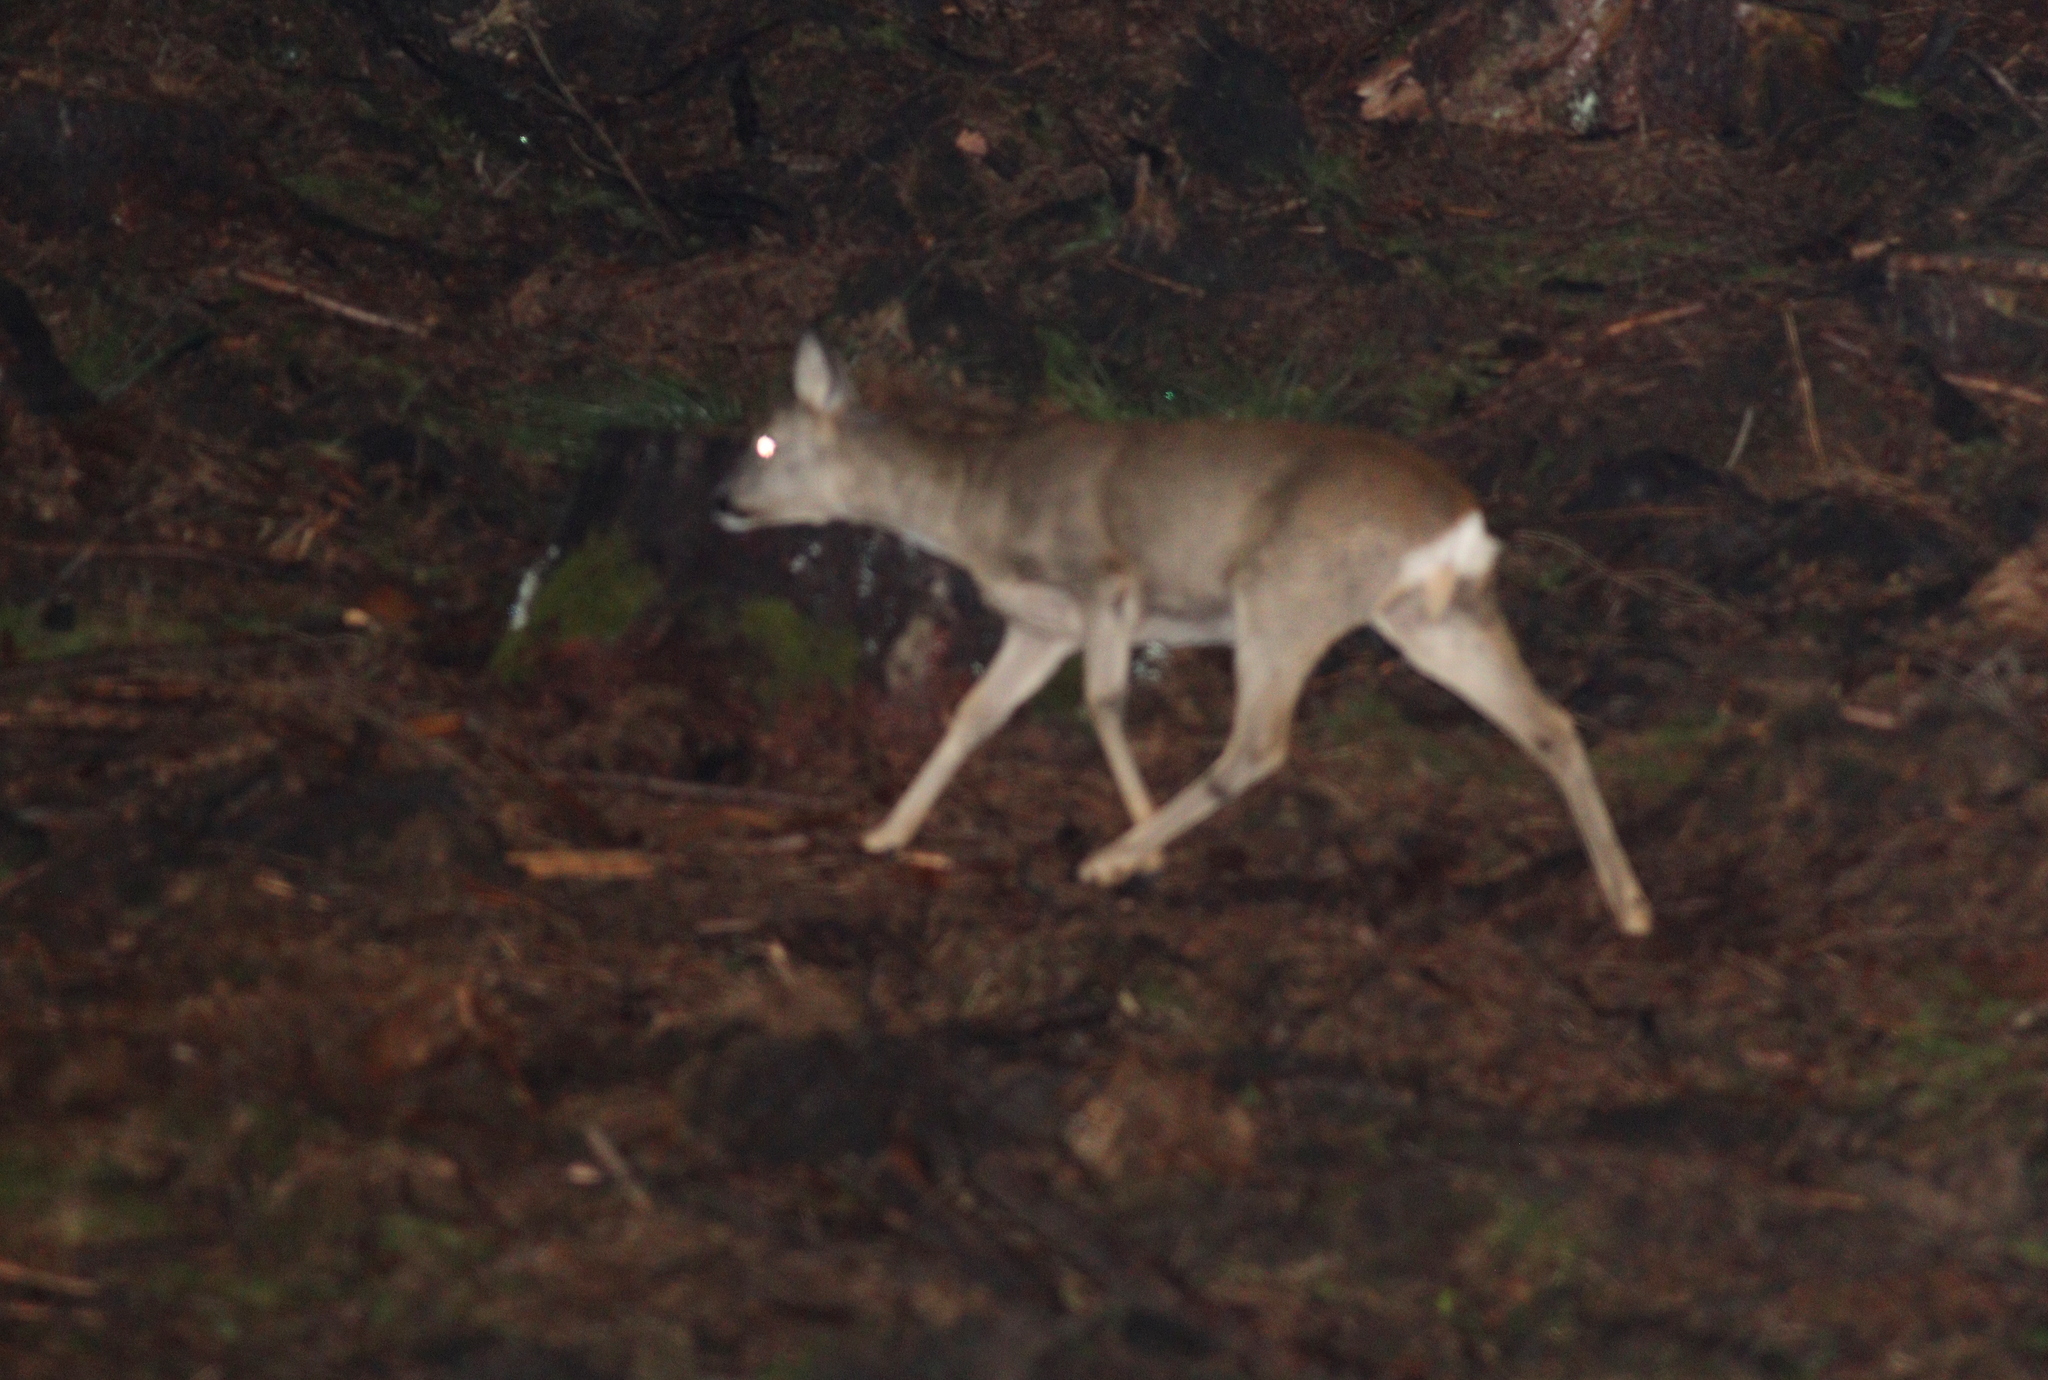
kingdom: Animalia
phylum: Chordata
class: Mammalia
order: Artiodactyla
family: Cervidae
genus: Capreolus
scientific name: Capreolus capreolus
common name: Western roe deer
